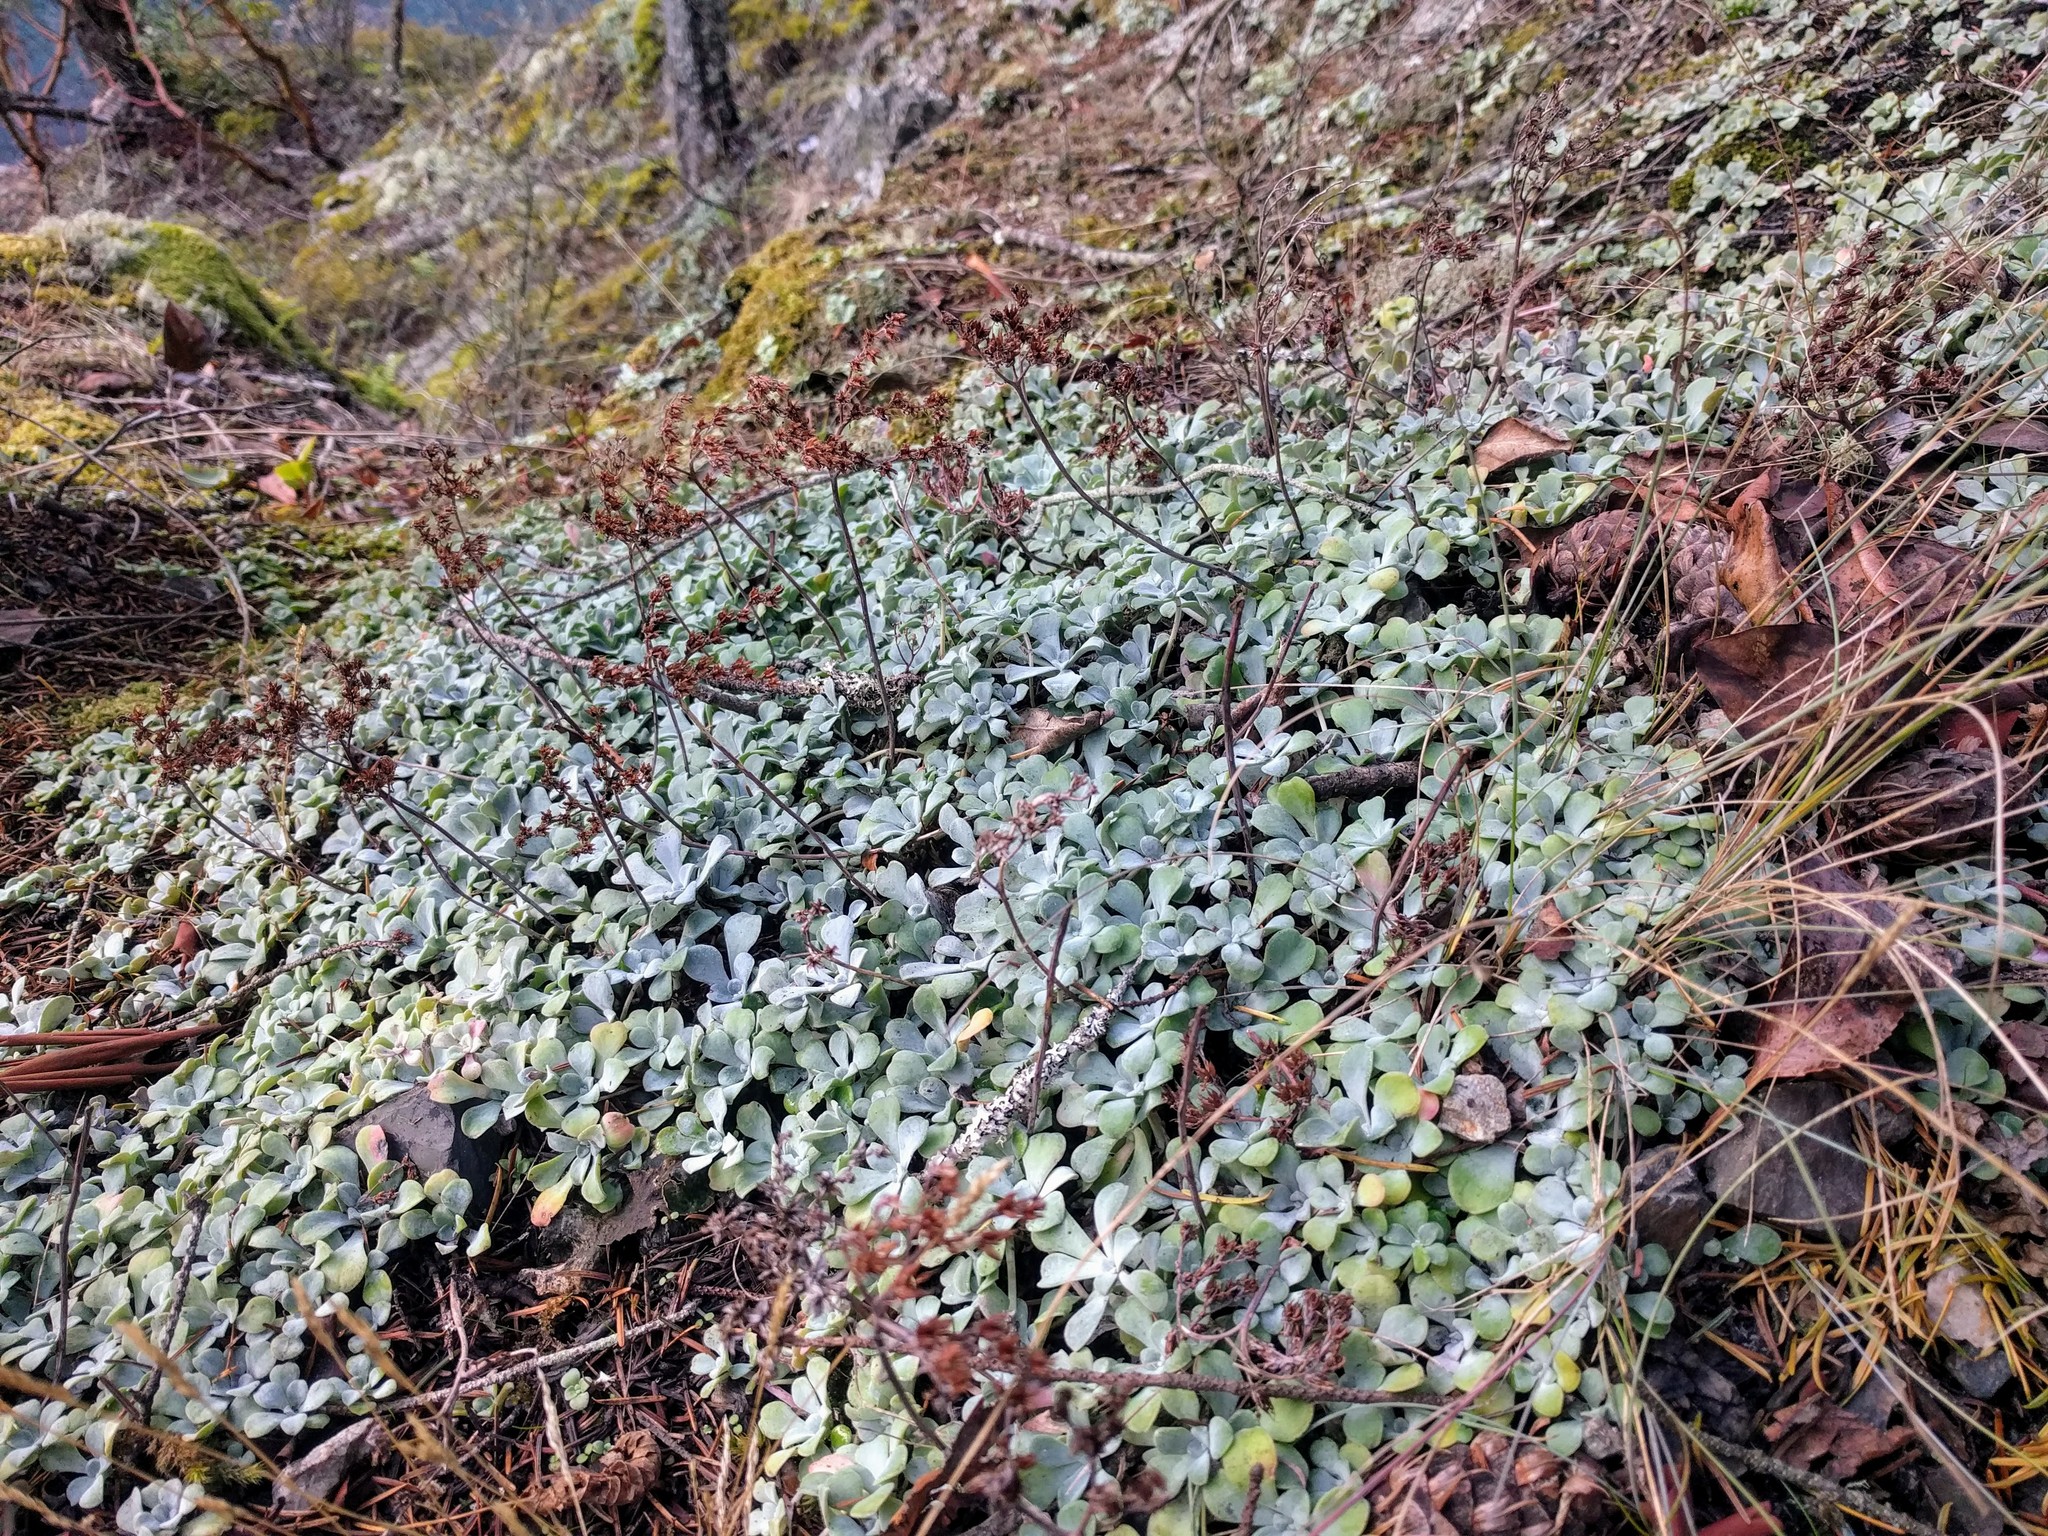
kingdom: Plantae
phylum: Tracheophyta
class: Magnoliopsida
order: Saxifragales
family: Crassulaceae
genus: Sedum
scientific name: Sedum spathulifolium
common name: Colorado stonecrop
